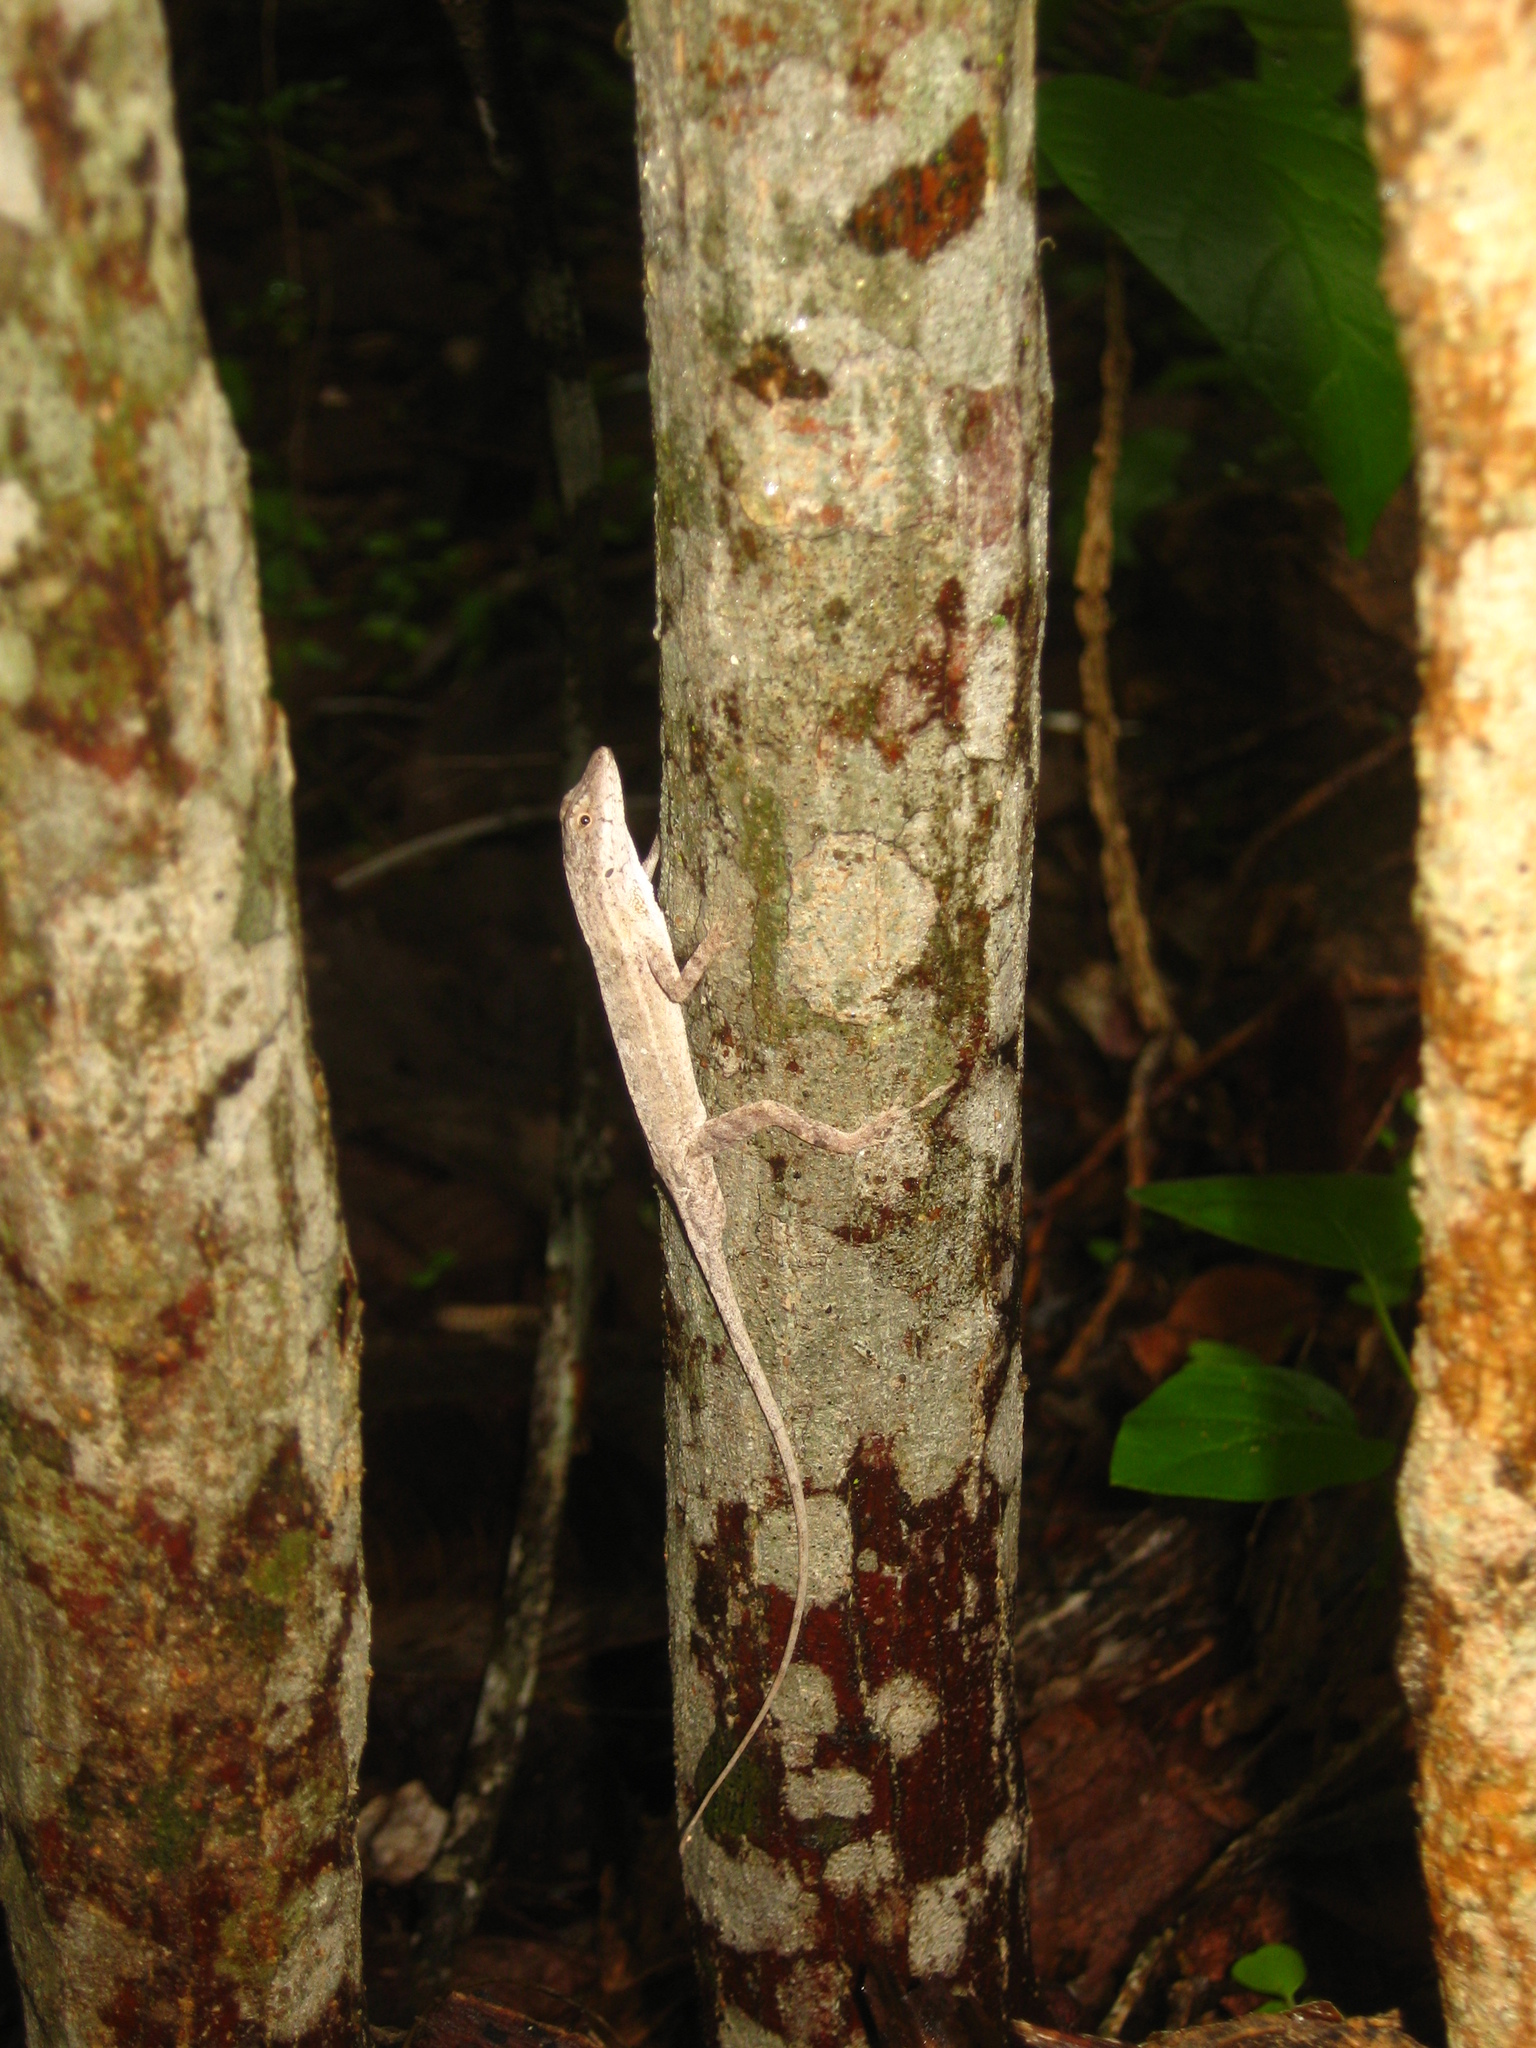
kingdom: Animalia
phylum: Chordata
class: Squamata
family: Dactyloidae
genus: Anolis
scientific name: Anolis nebulosus
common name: Clouded anole
